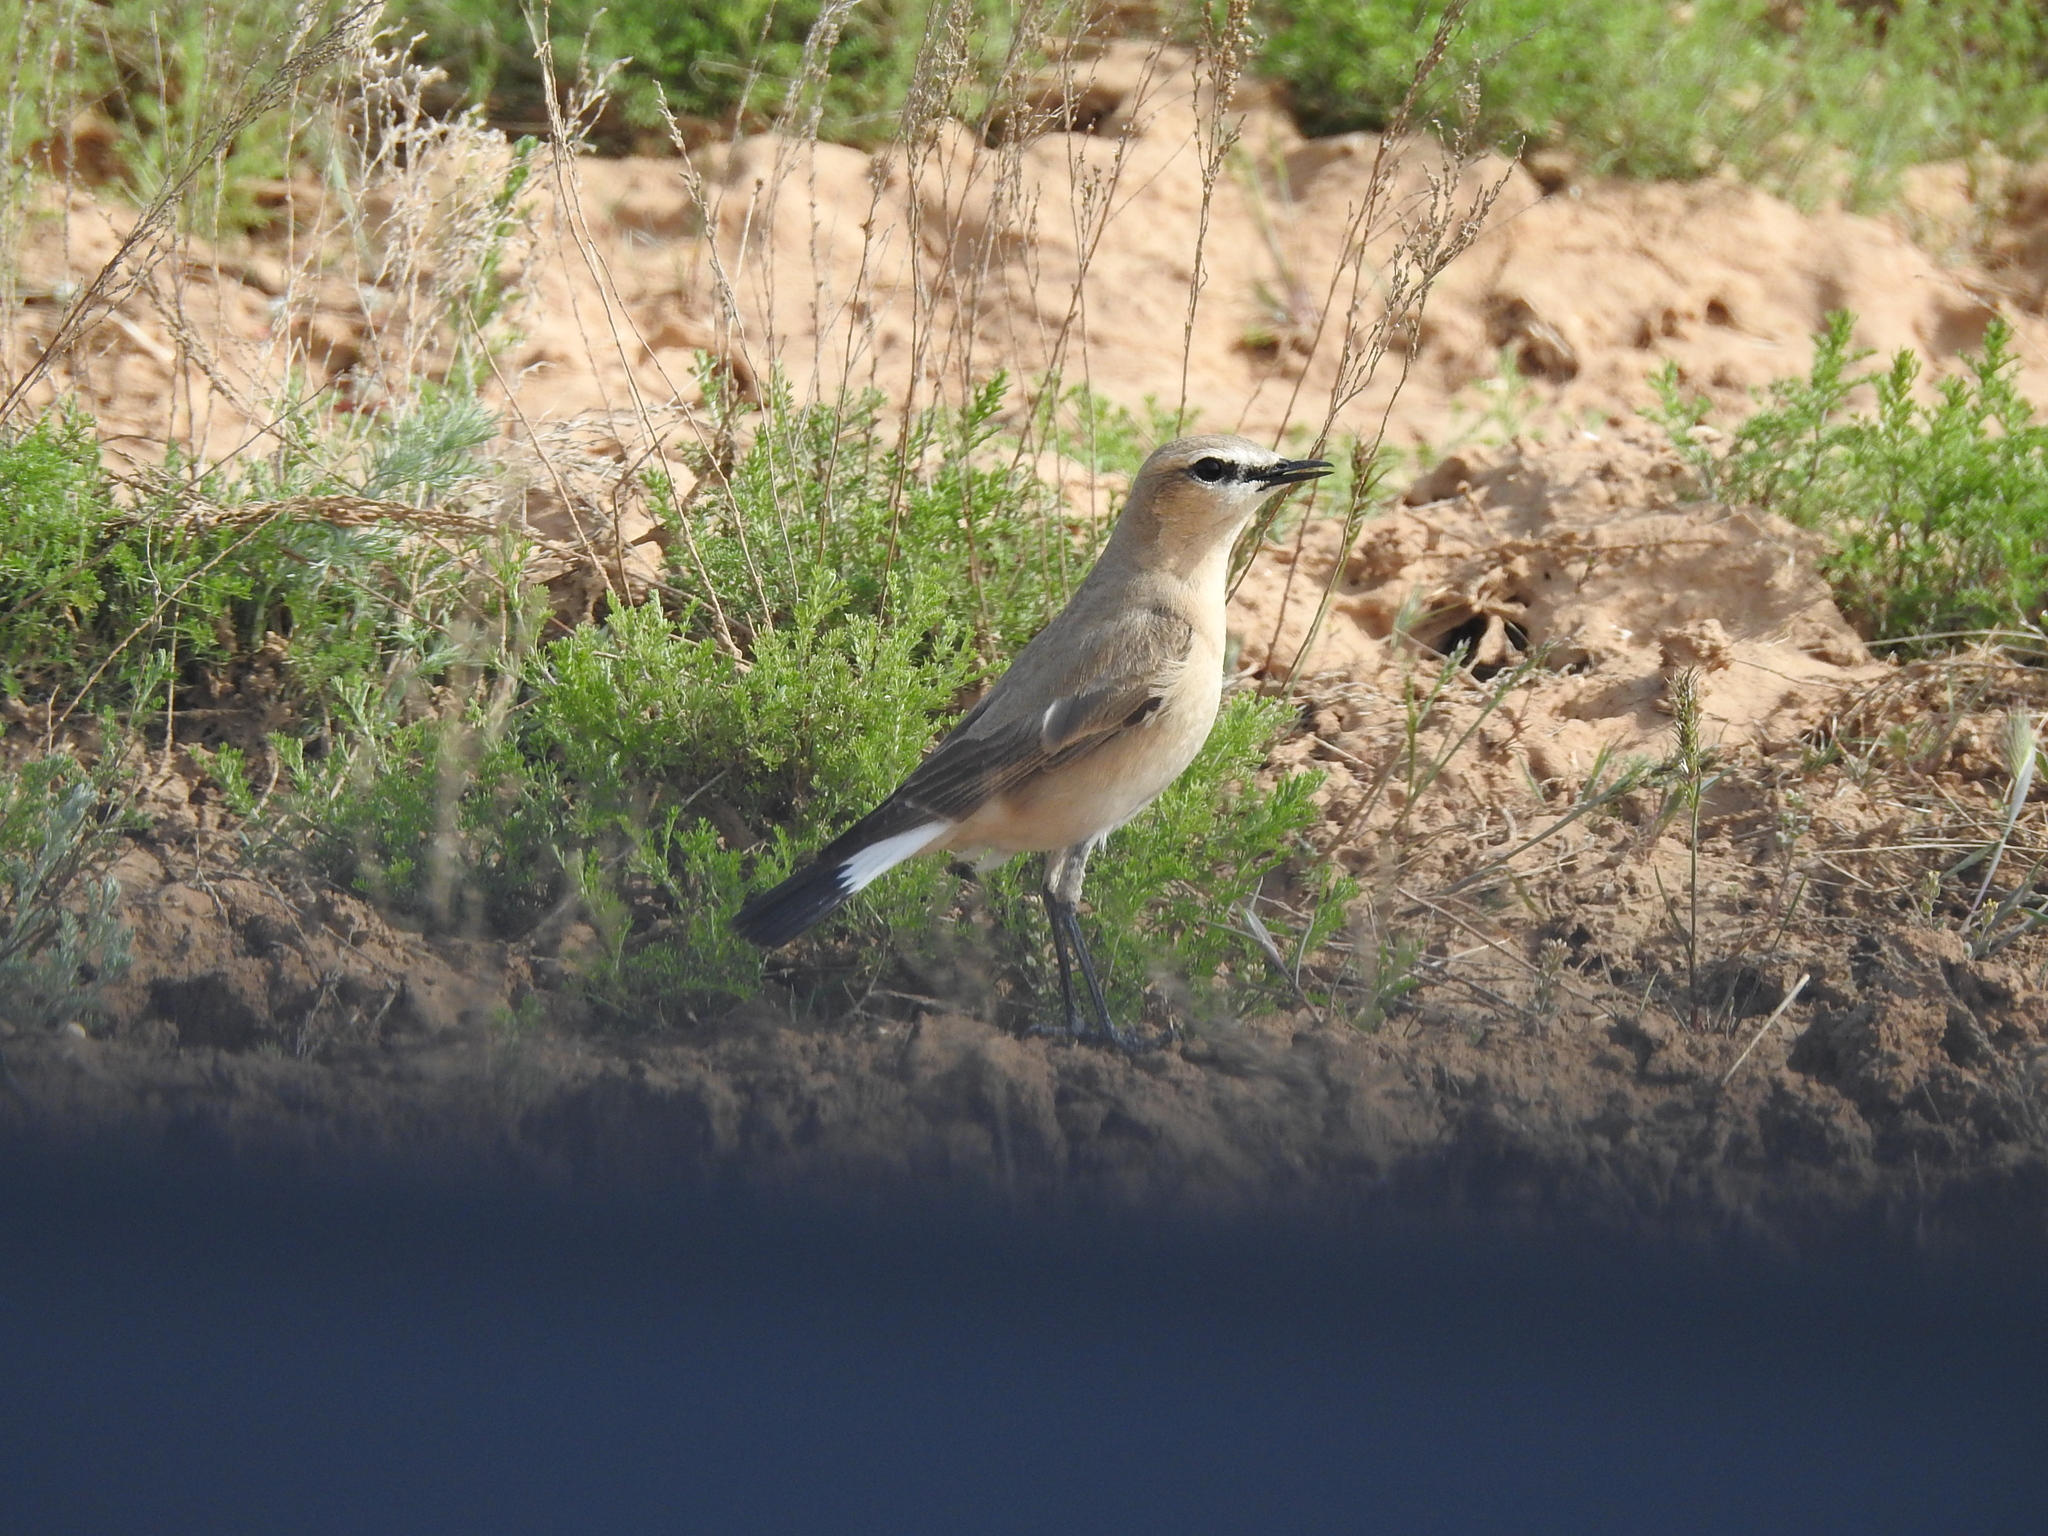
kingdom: Animalia
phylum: Chordata
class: Aves
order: Passeriformes
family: Muscicapidae
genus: Oenanthe
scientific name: Oenanthe isabellina
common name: Isabelline wheatear
